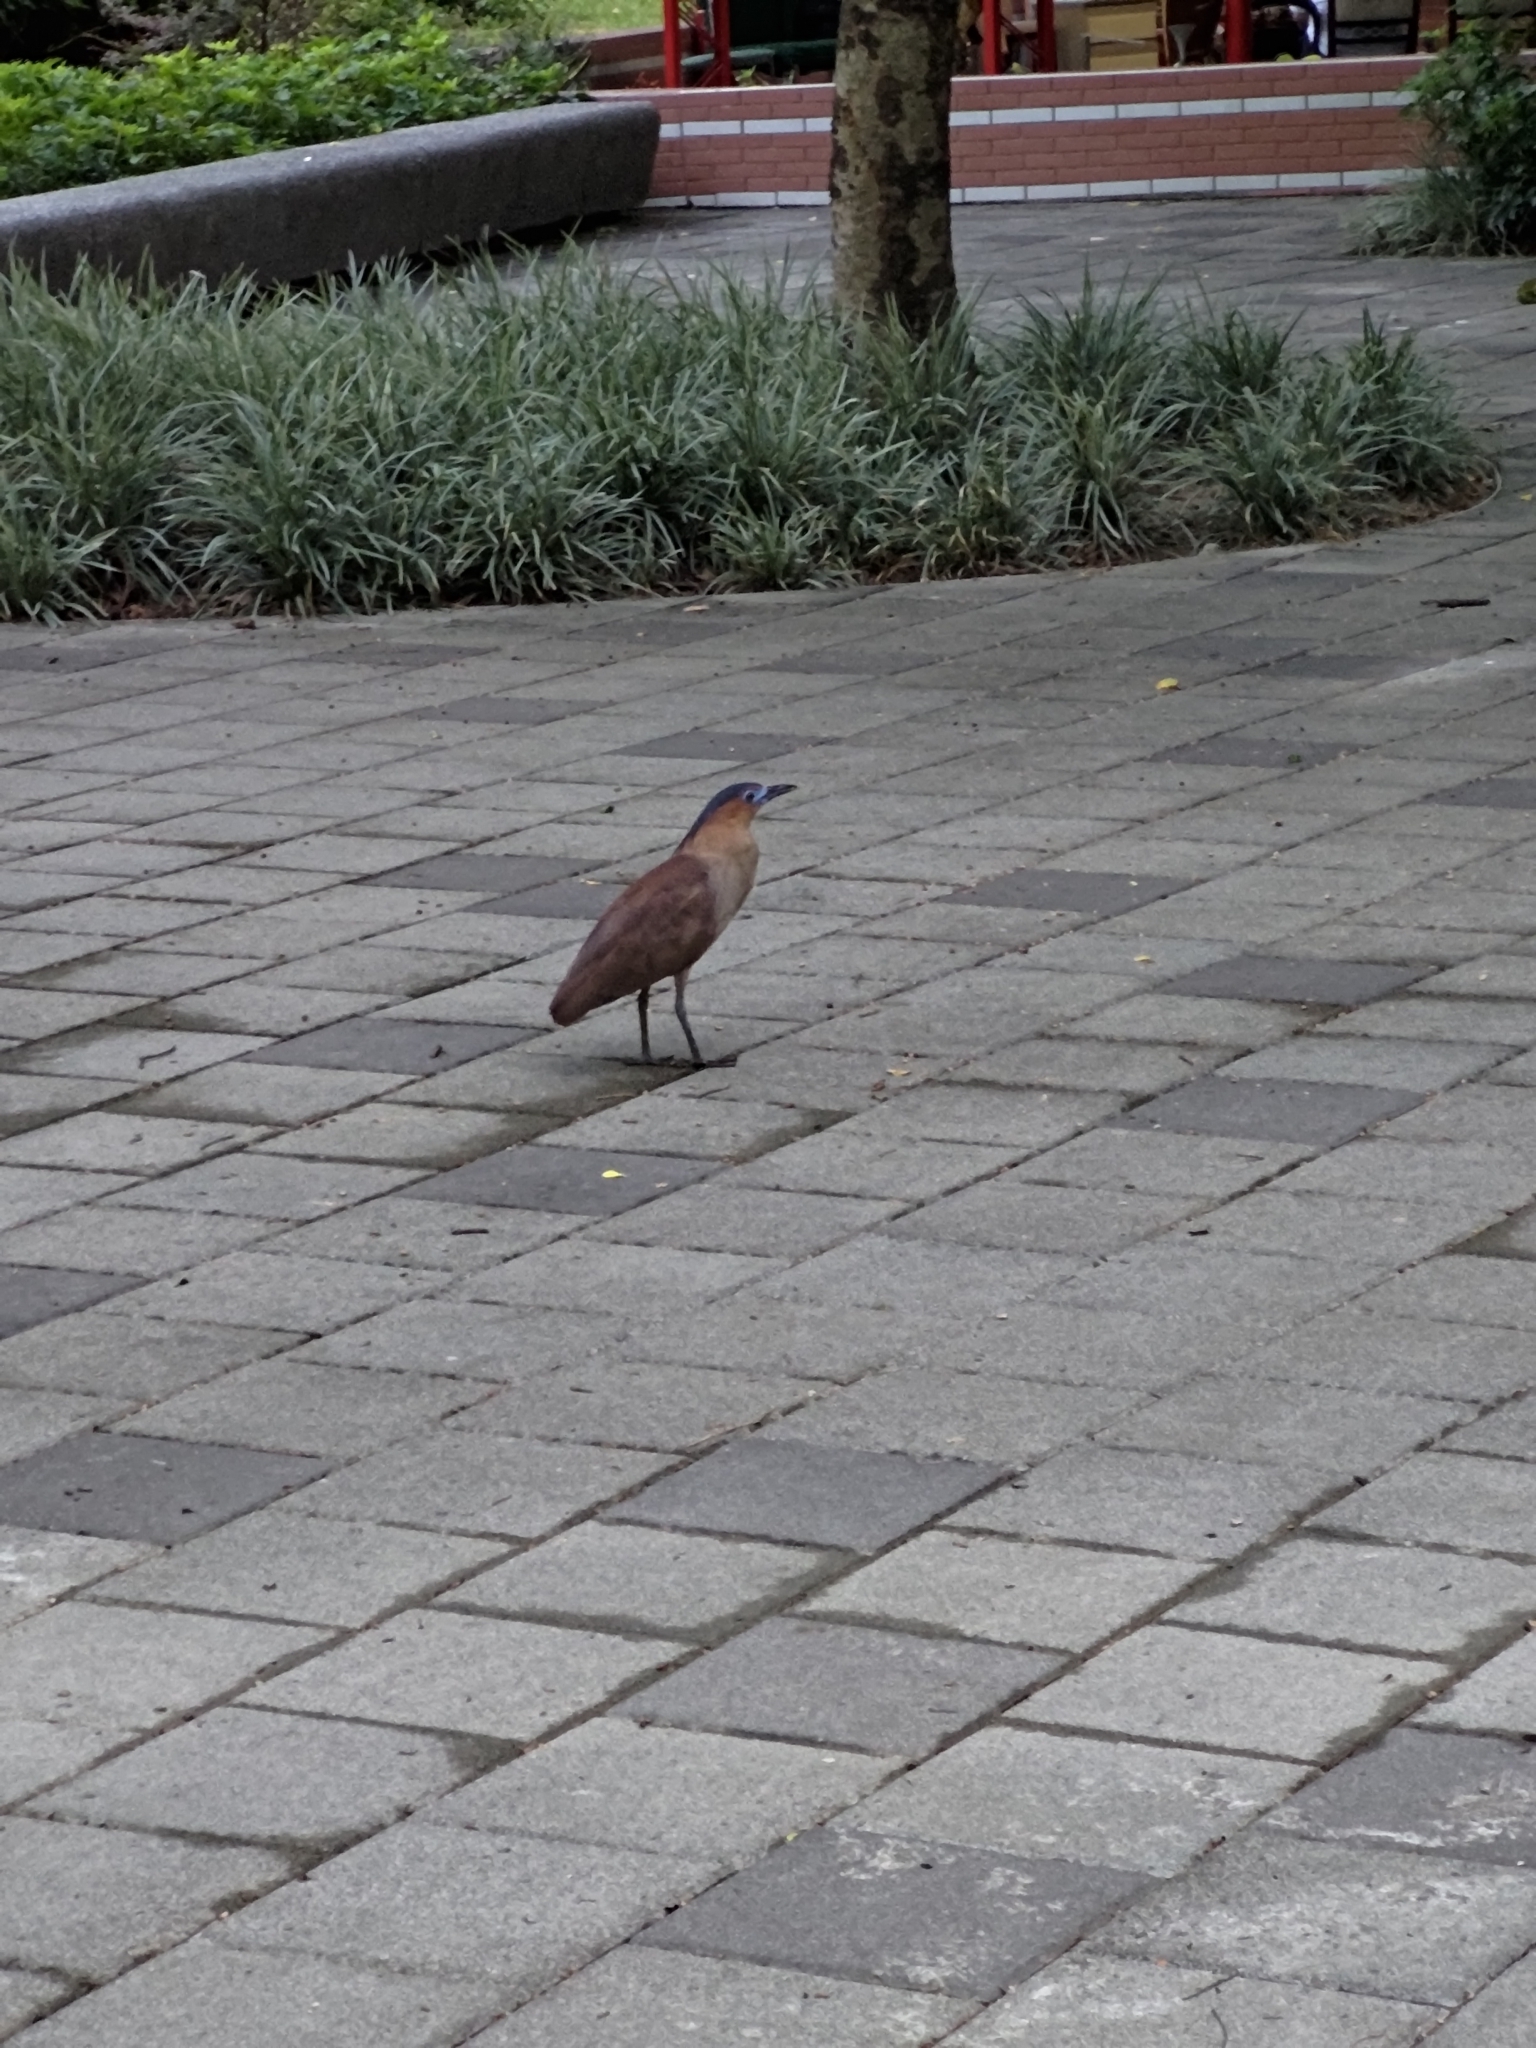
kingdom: Animalia
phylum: Chordata
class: Aves
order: Pelecaniformes
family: Ardeidae
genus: Gorsachius
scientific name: Gorsachius melanolophus
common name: Malayan night heron
